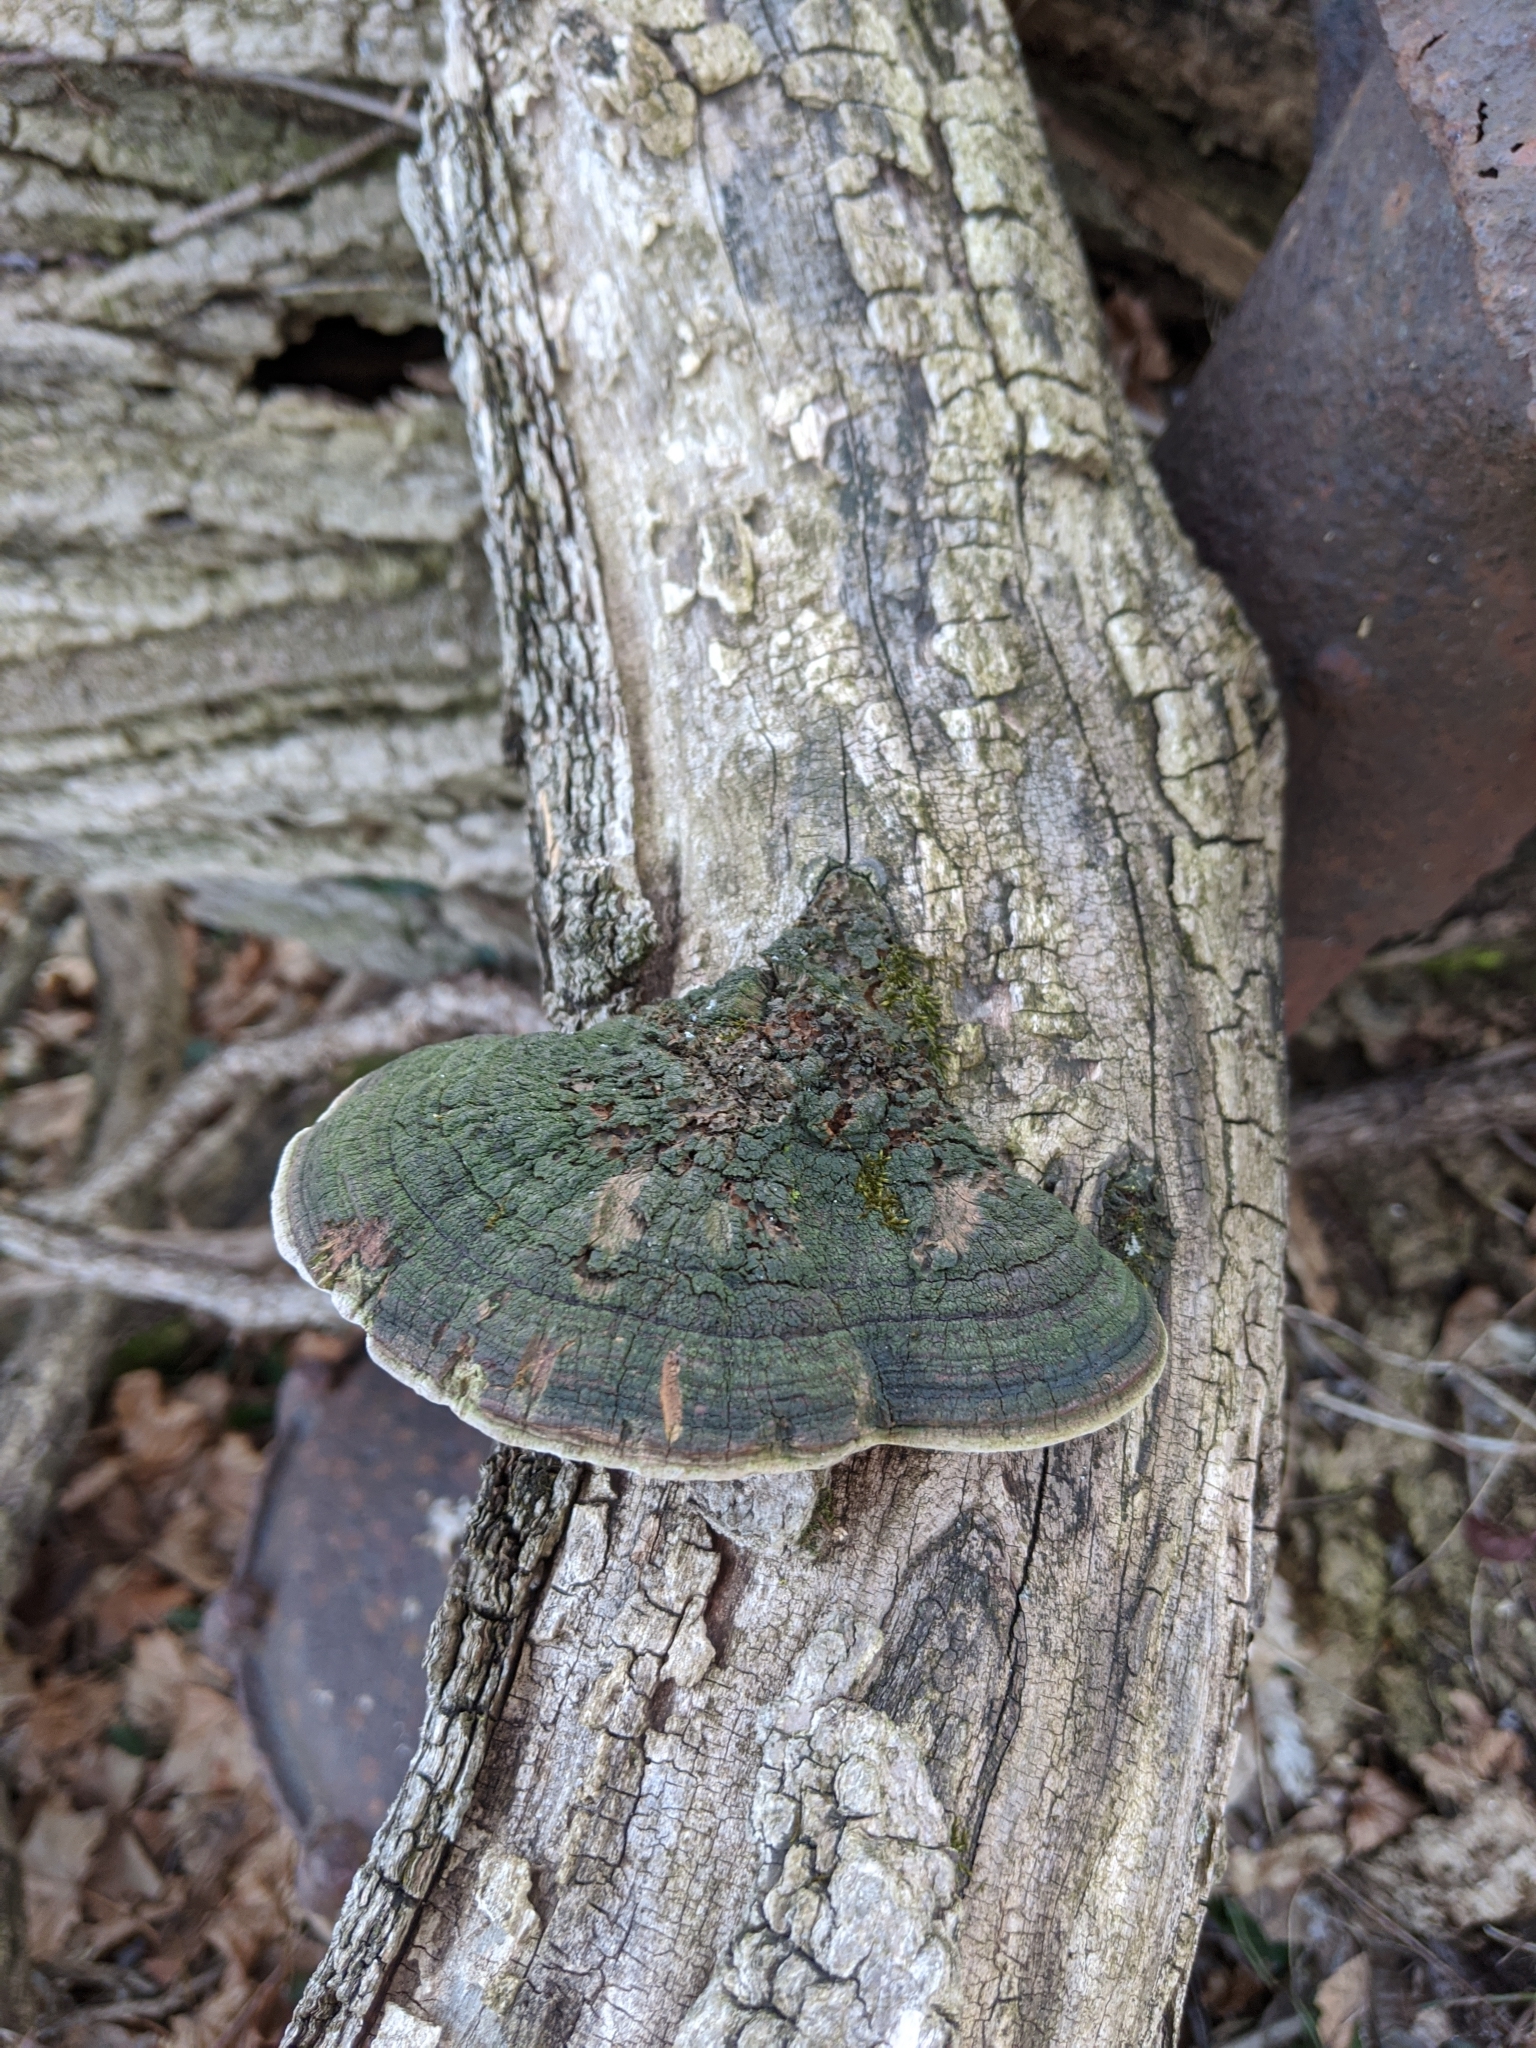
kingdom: Fungi
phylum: Basidiomycota
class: Agaricomycetes
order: Hymenochaetales
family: Hymenochaetaceae
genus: Phellinus
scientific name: Phellinus robiniae
